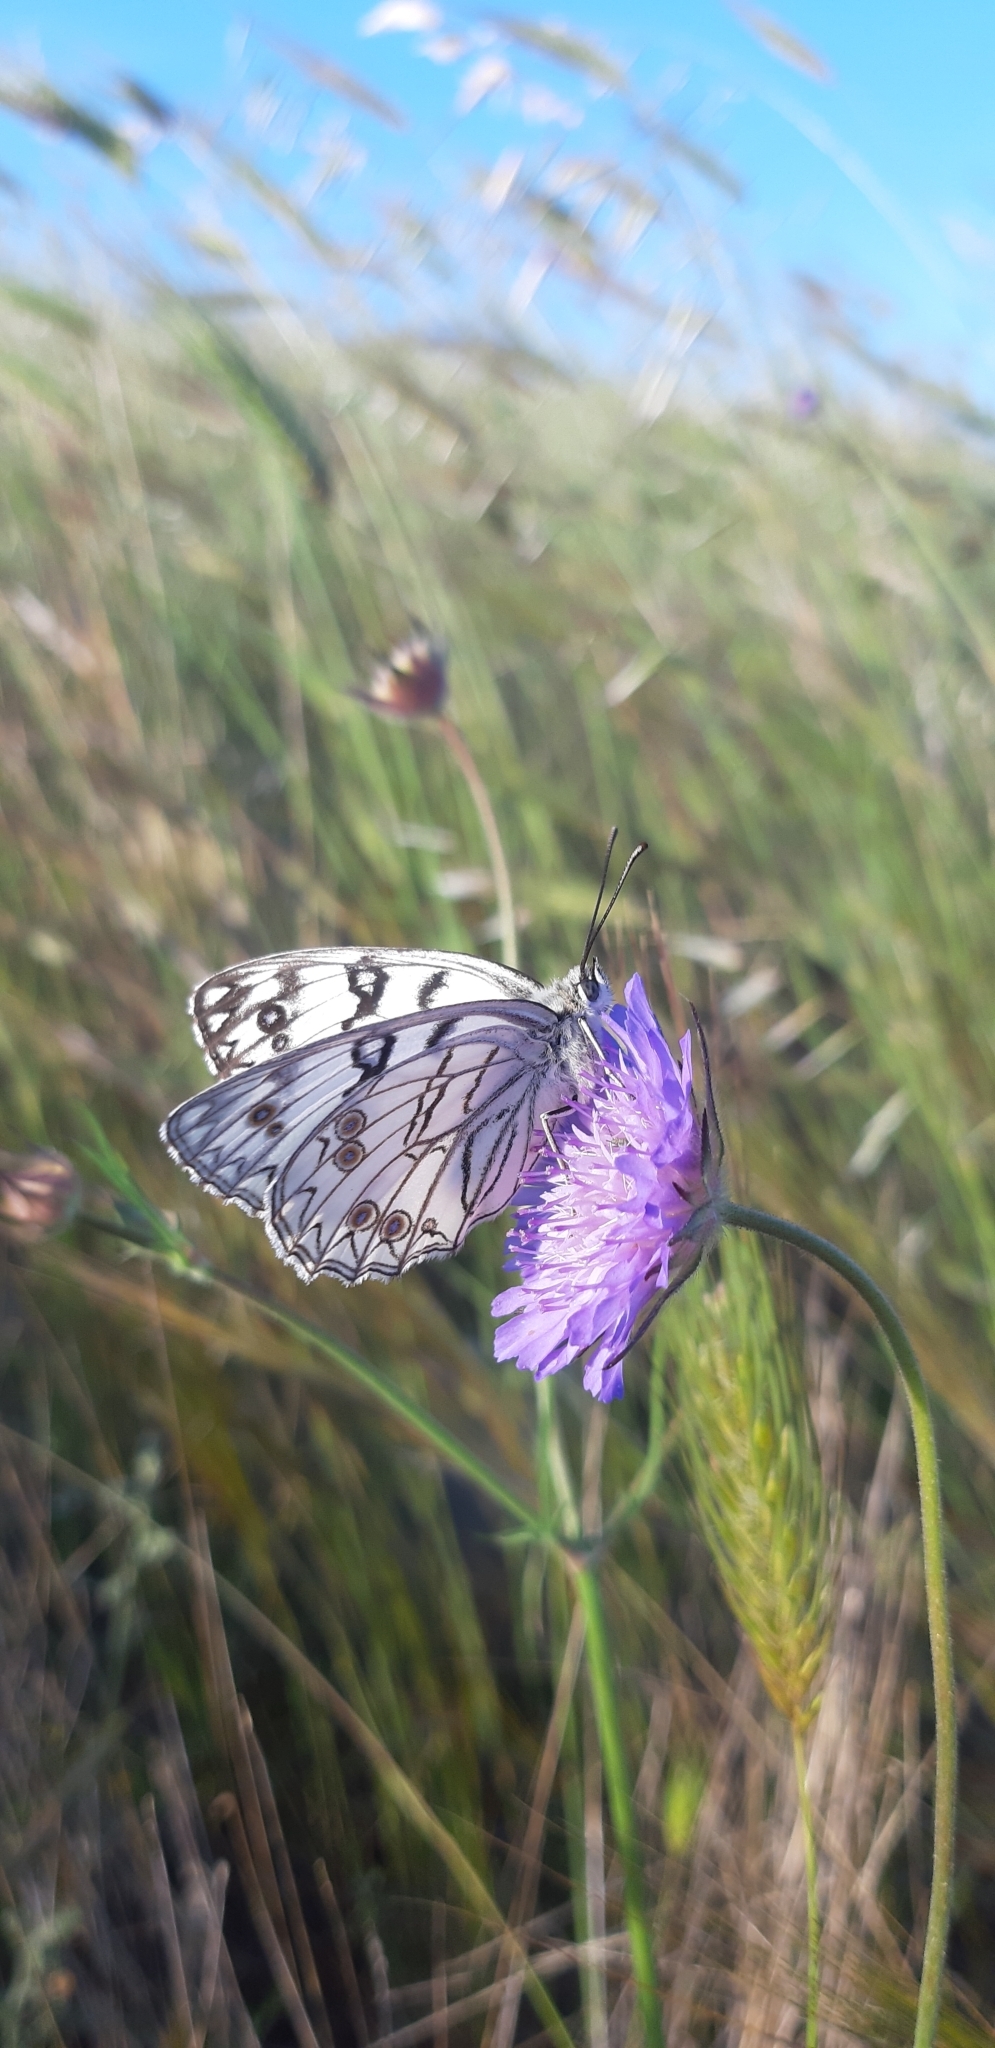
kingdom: Animalia
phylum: Arthropoda
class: Insecta
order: Lepidoptera
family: Nymphalidae
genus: Melanargia
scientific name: Melanargia arge
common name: Italian marbled white
